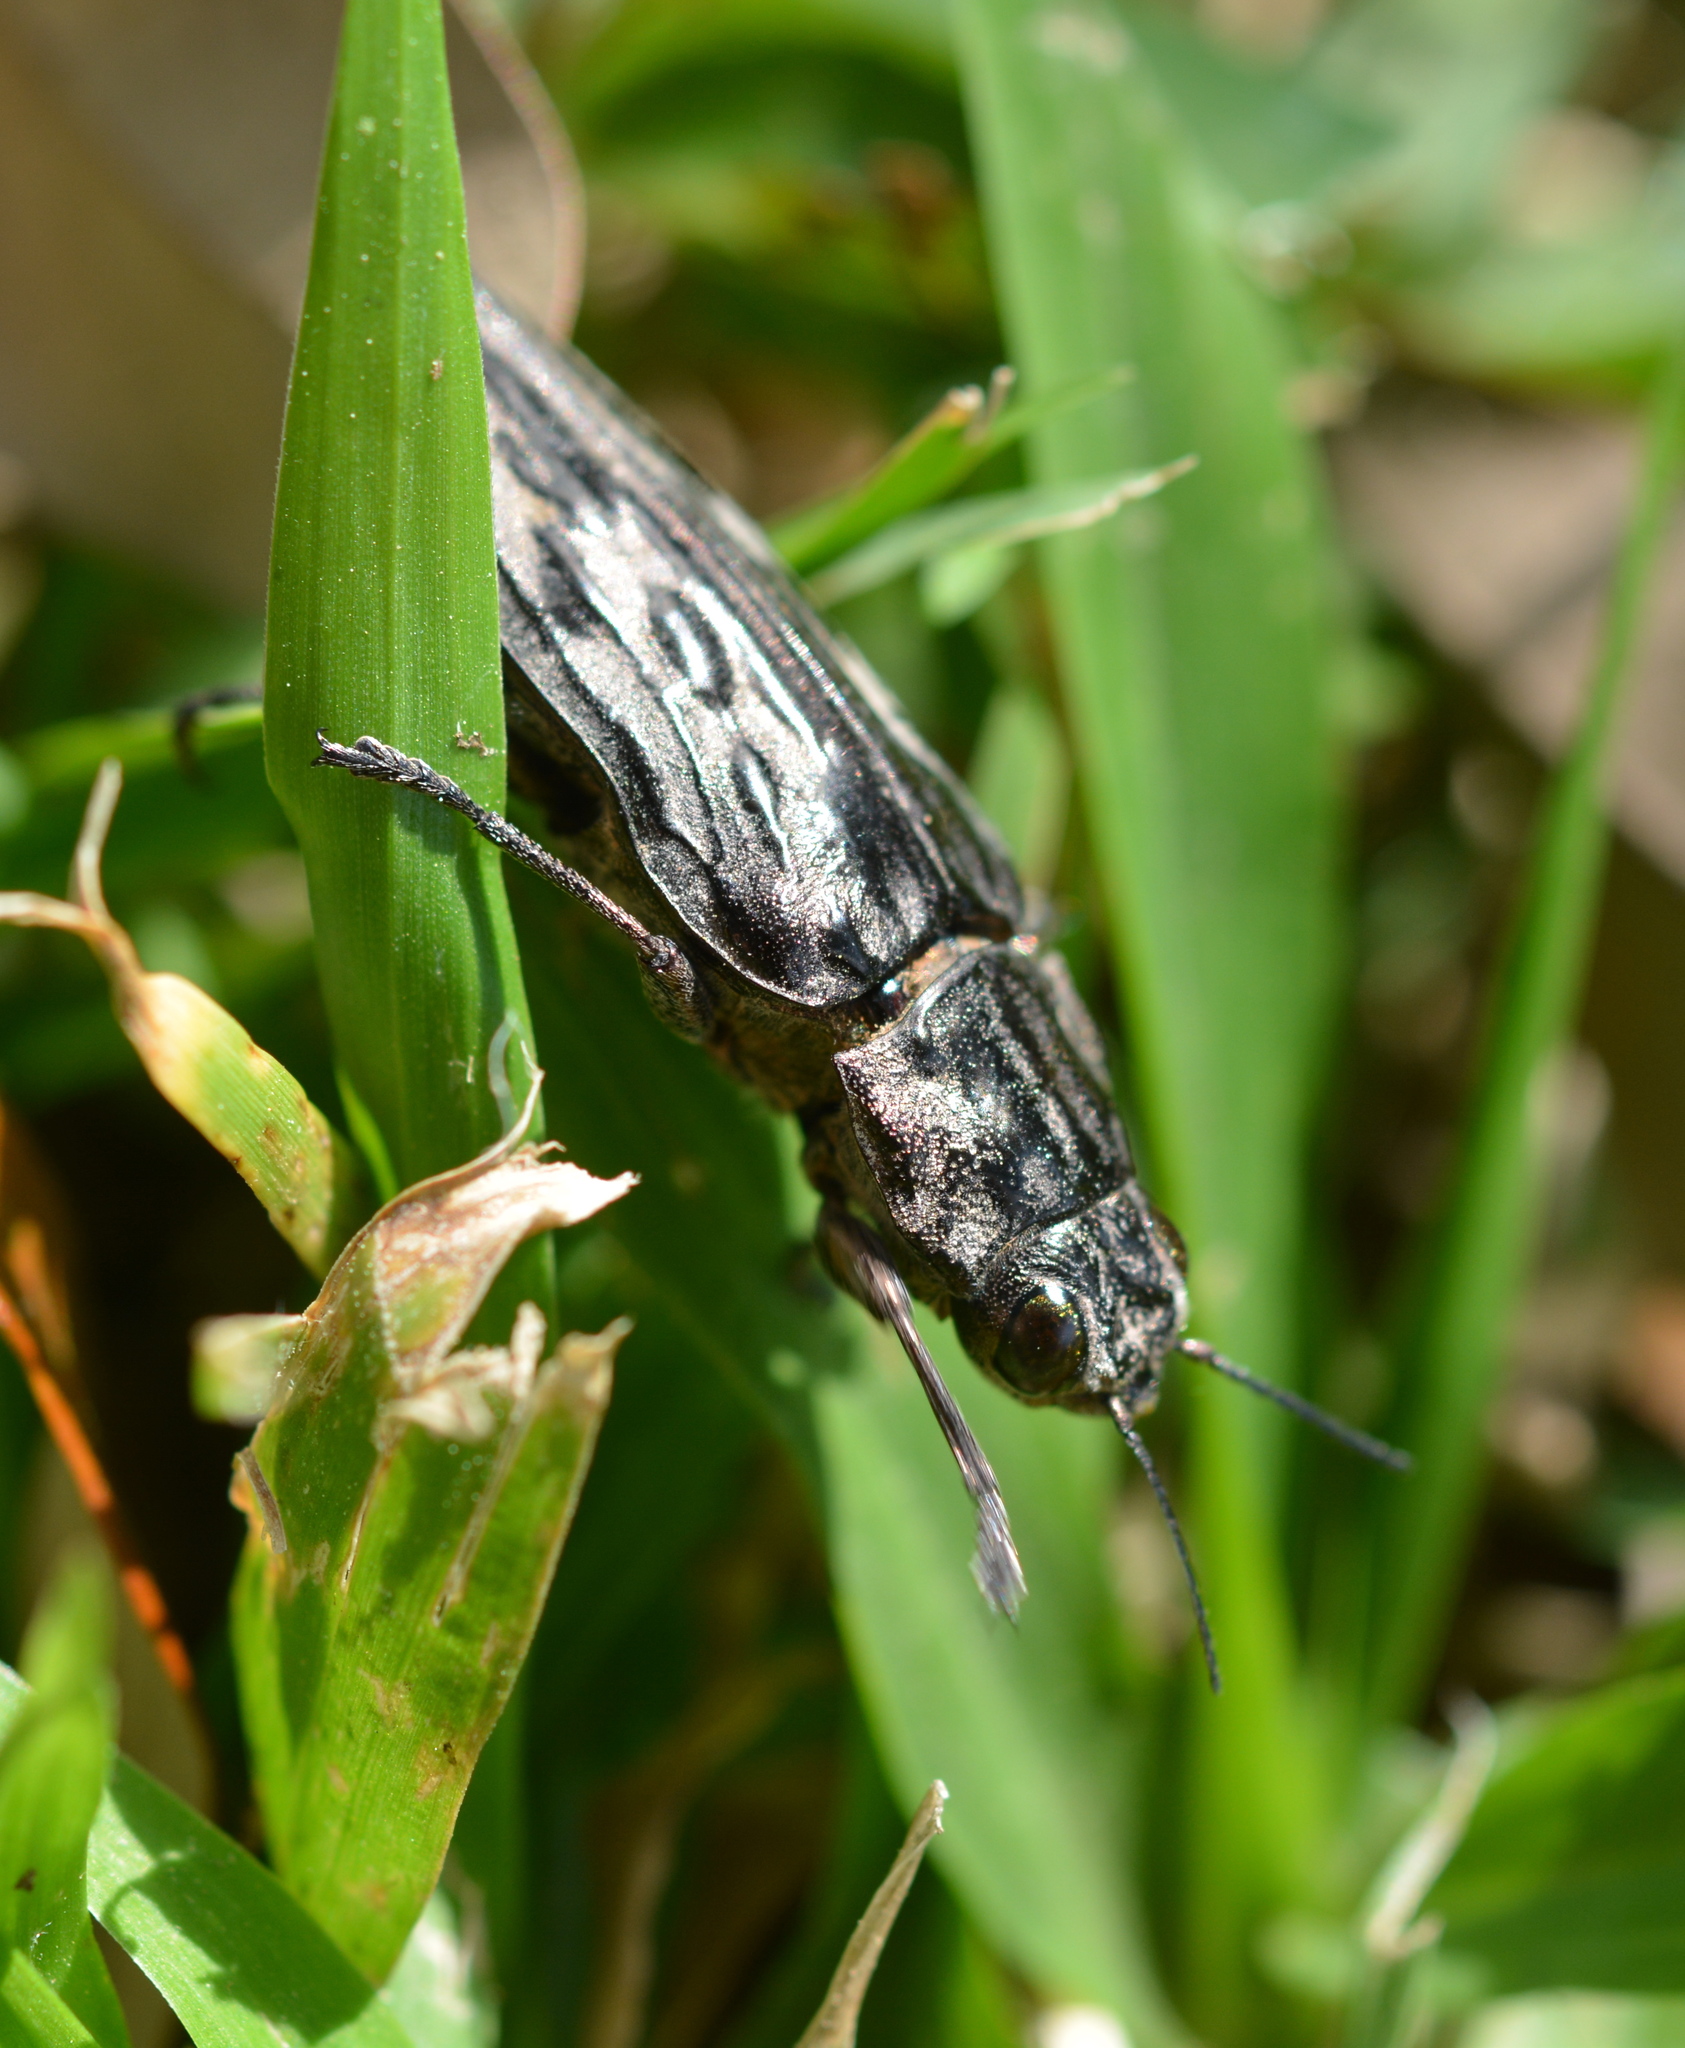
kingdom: Animalia
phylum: Arthropoda
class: Insecta
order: Coleoptera
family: Buprestidae
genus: Chalcophora
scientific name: Chalcophora virginiensis
